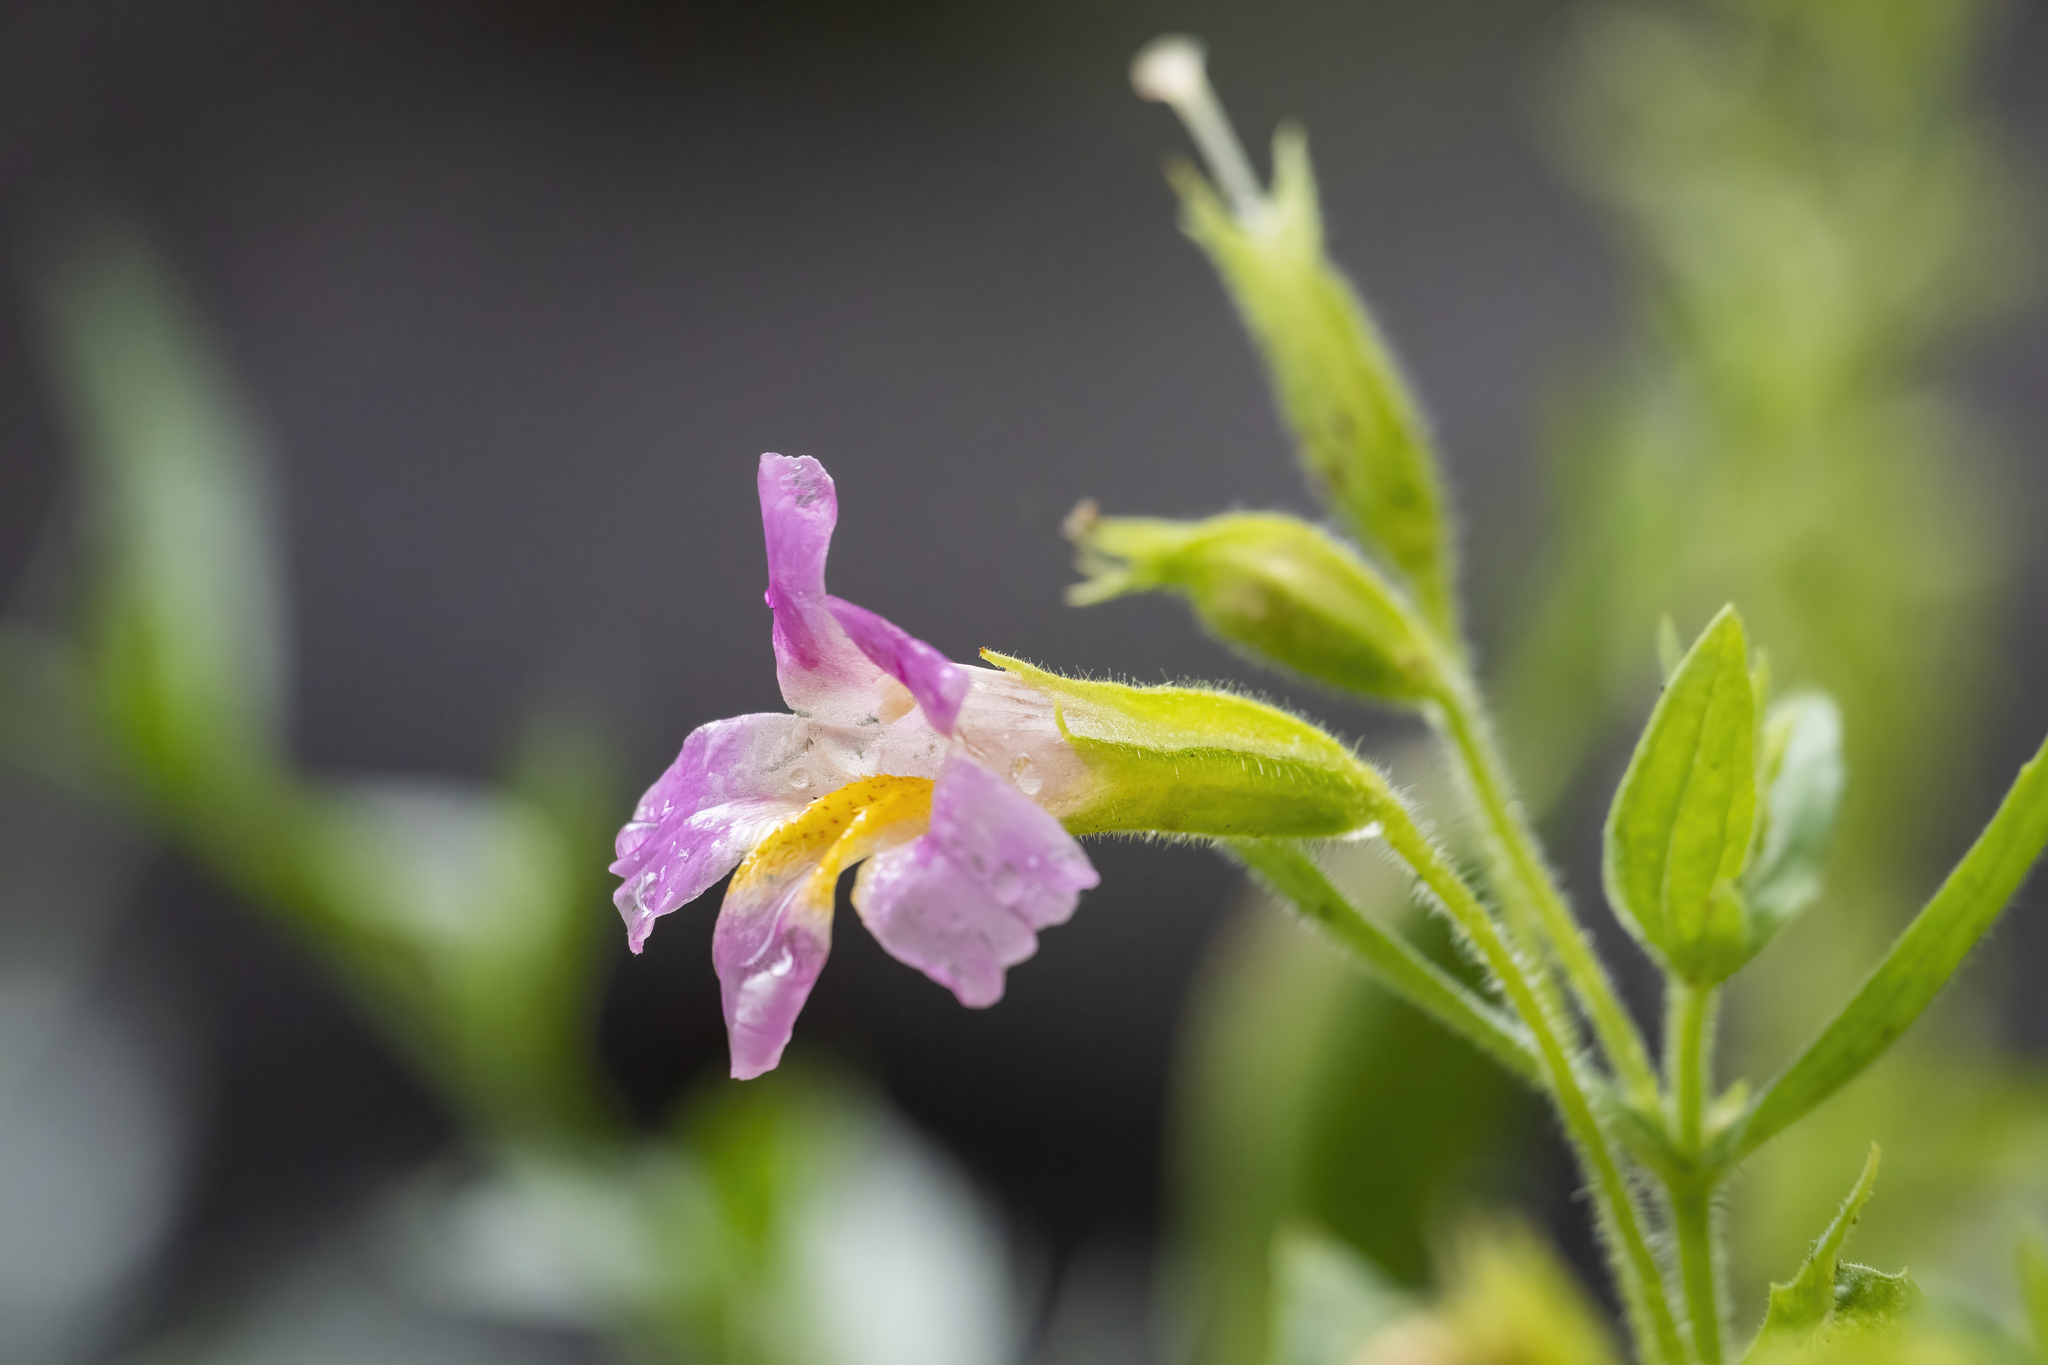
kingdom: Plantae
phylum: Tracheophyta
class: Magnoliopsida
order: Lamiales
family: Phrymaceae
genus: Erythranthe
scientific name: Erythranthe erubescens
